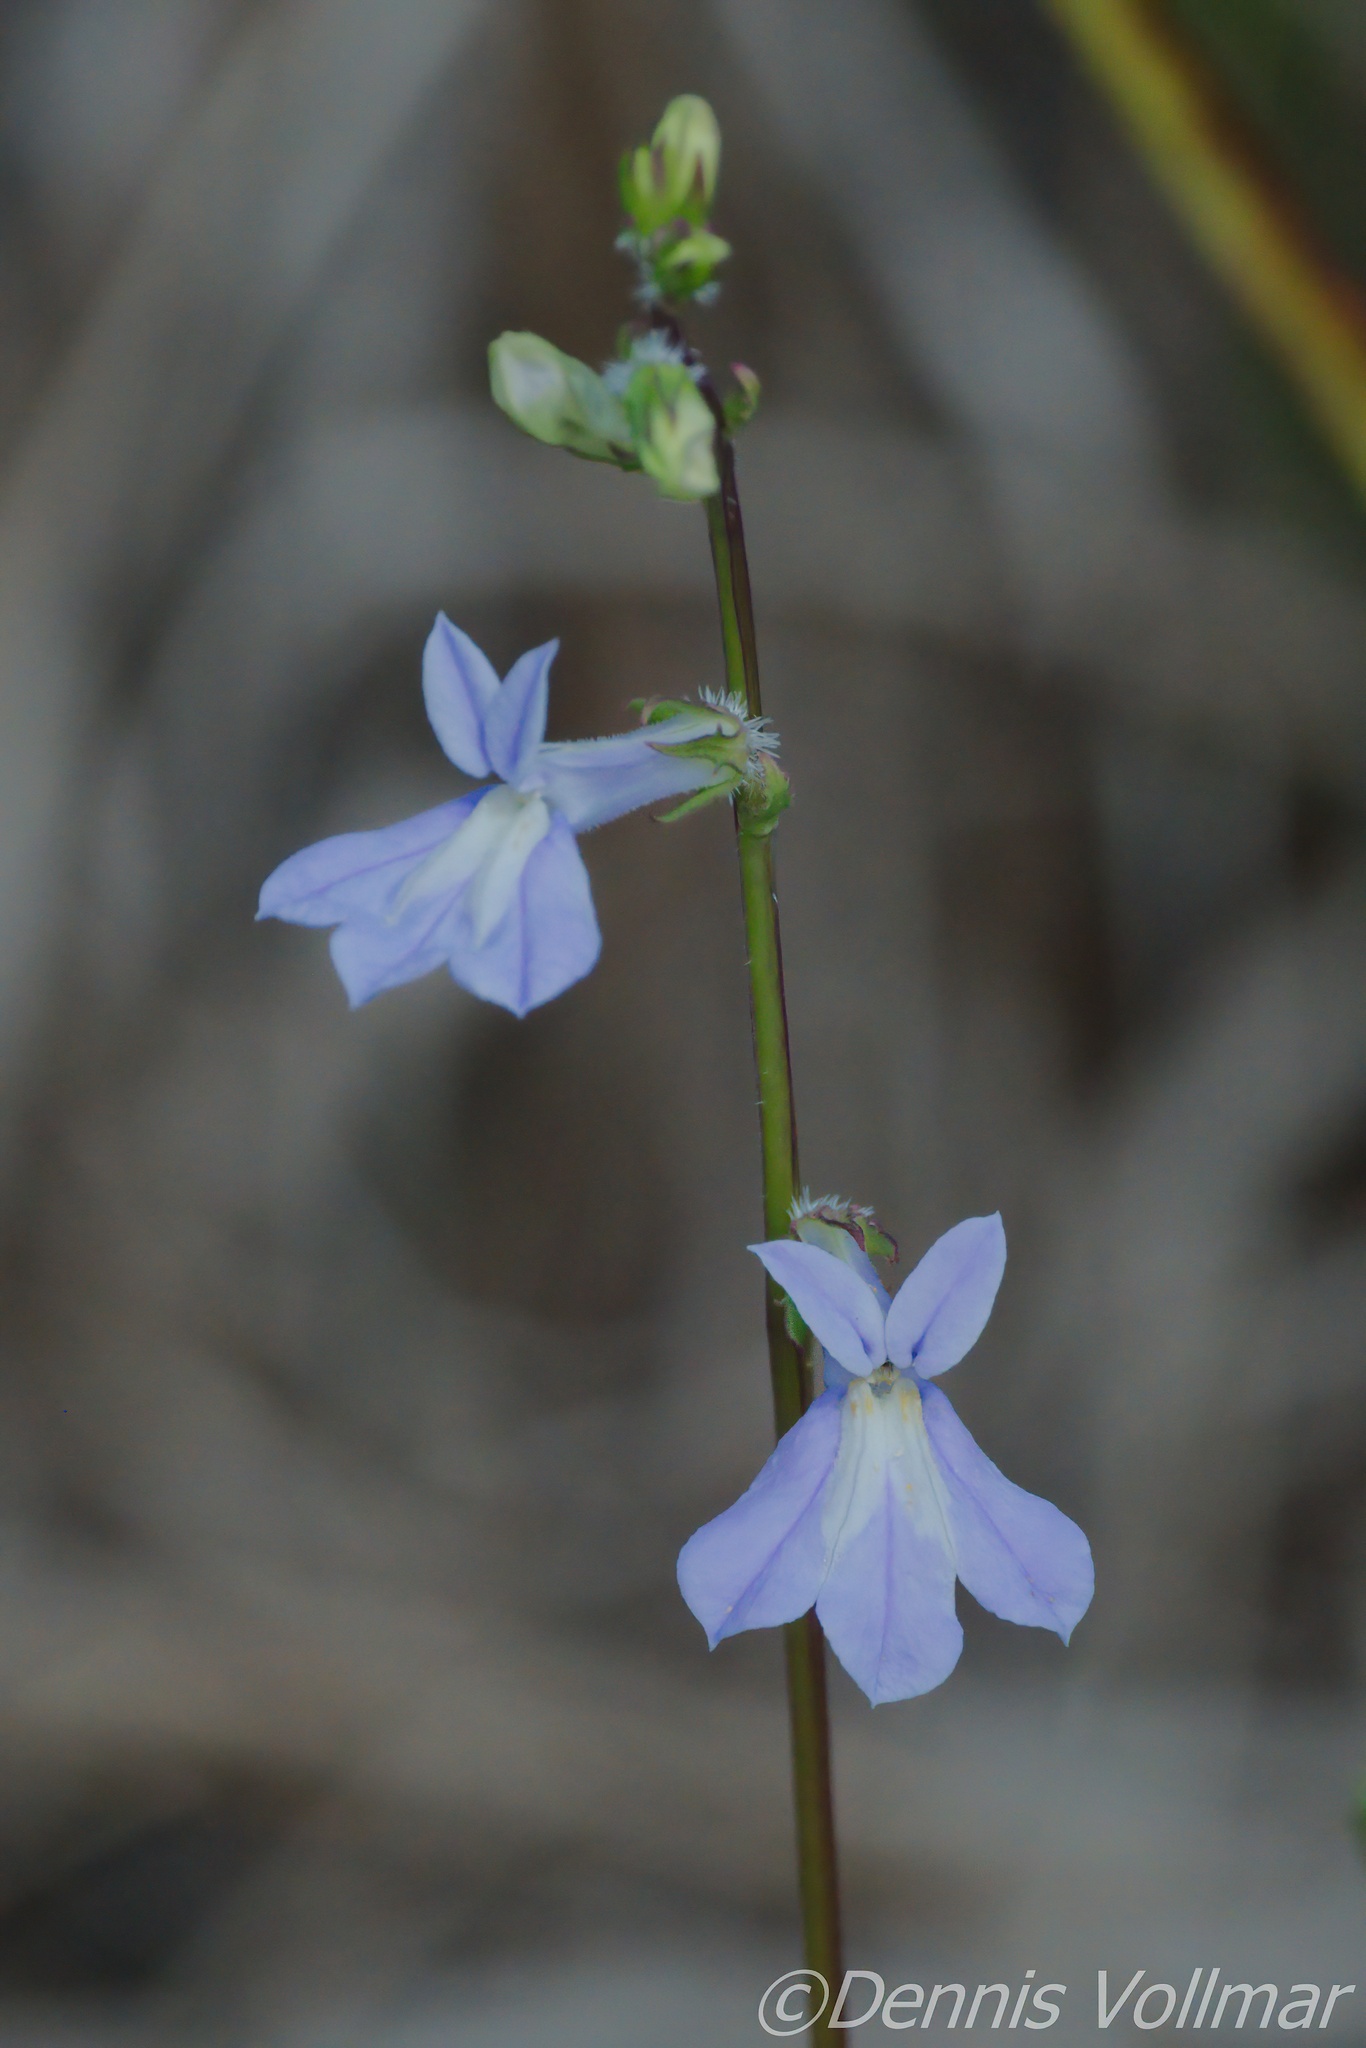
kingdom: Plantae
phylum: Tracheophyta
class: Magnoliopsida
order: Asterales
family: Campanulaceae
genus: Lobelia
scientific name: Lobelia glandulosa
